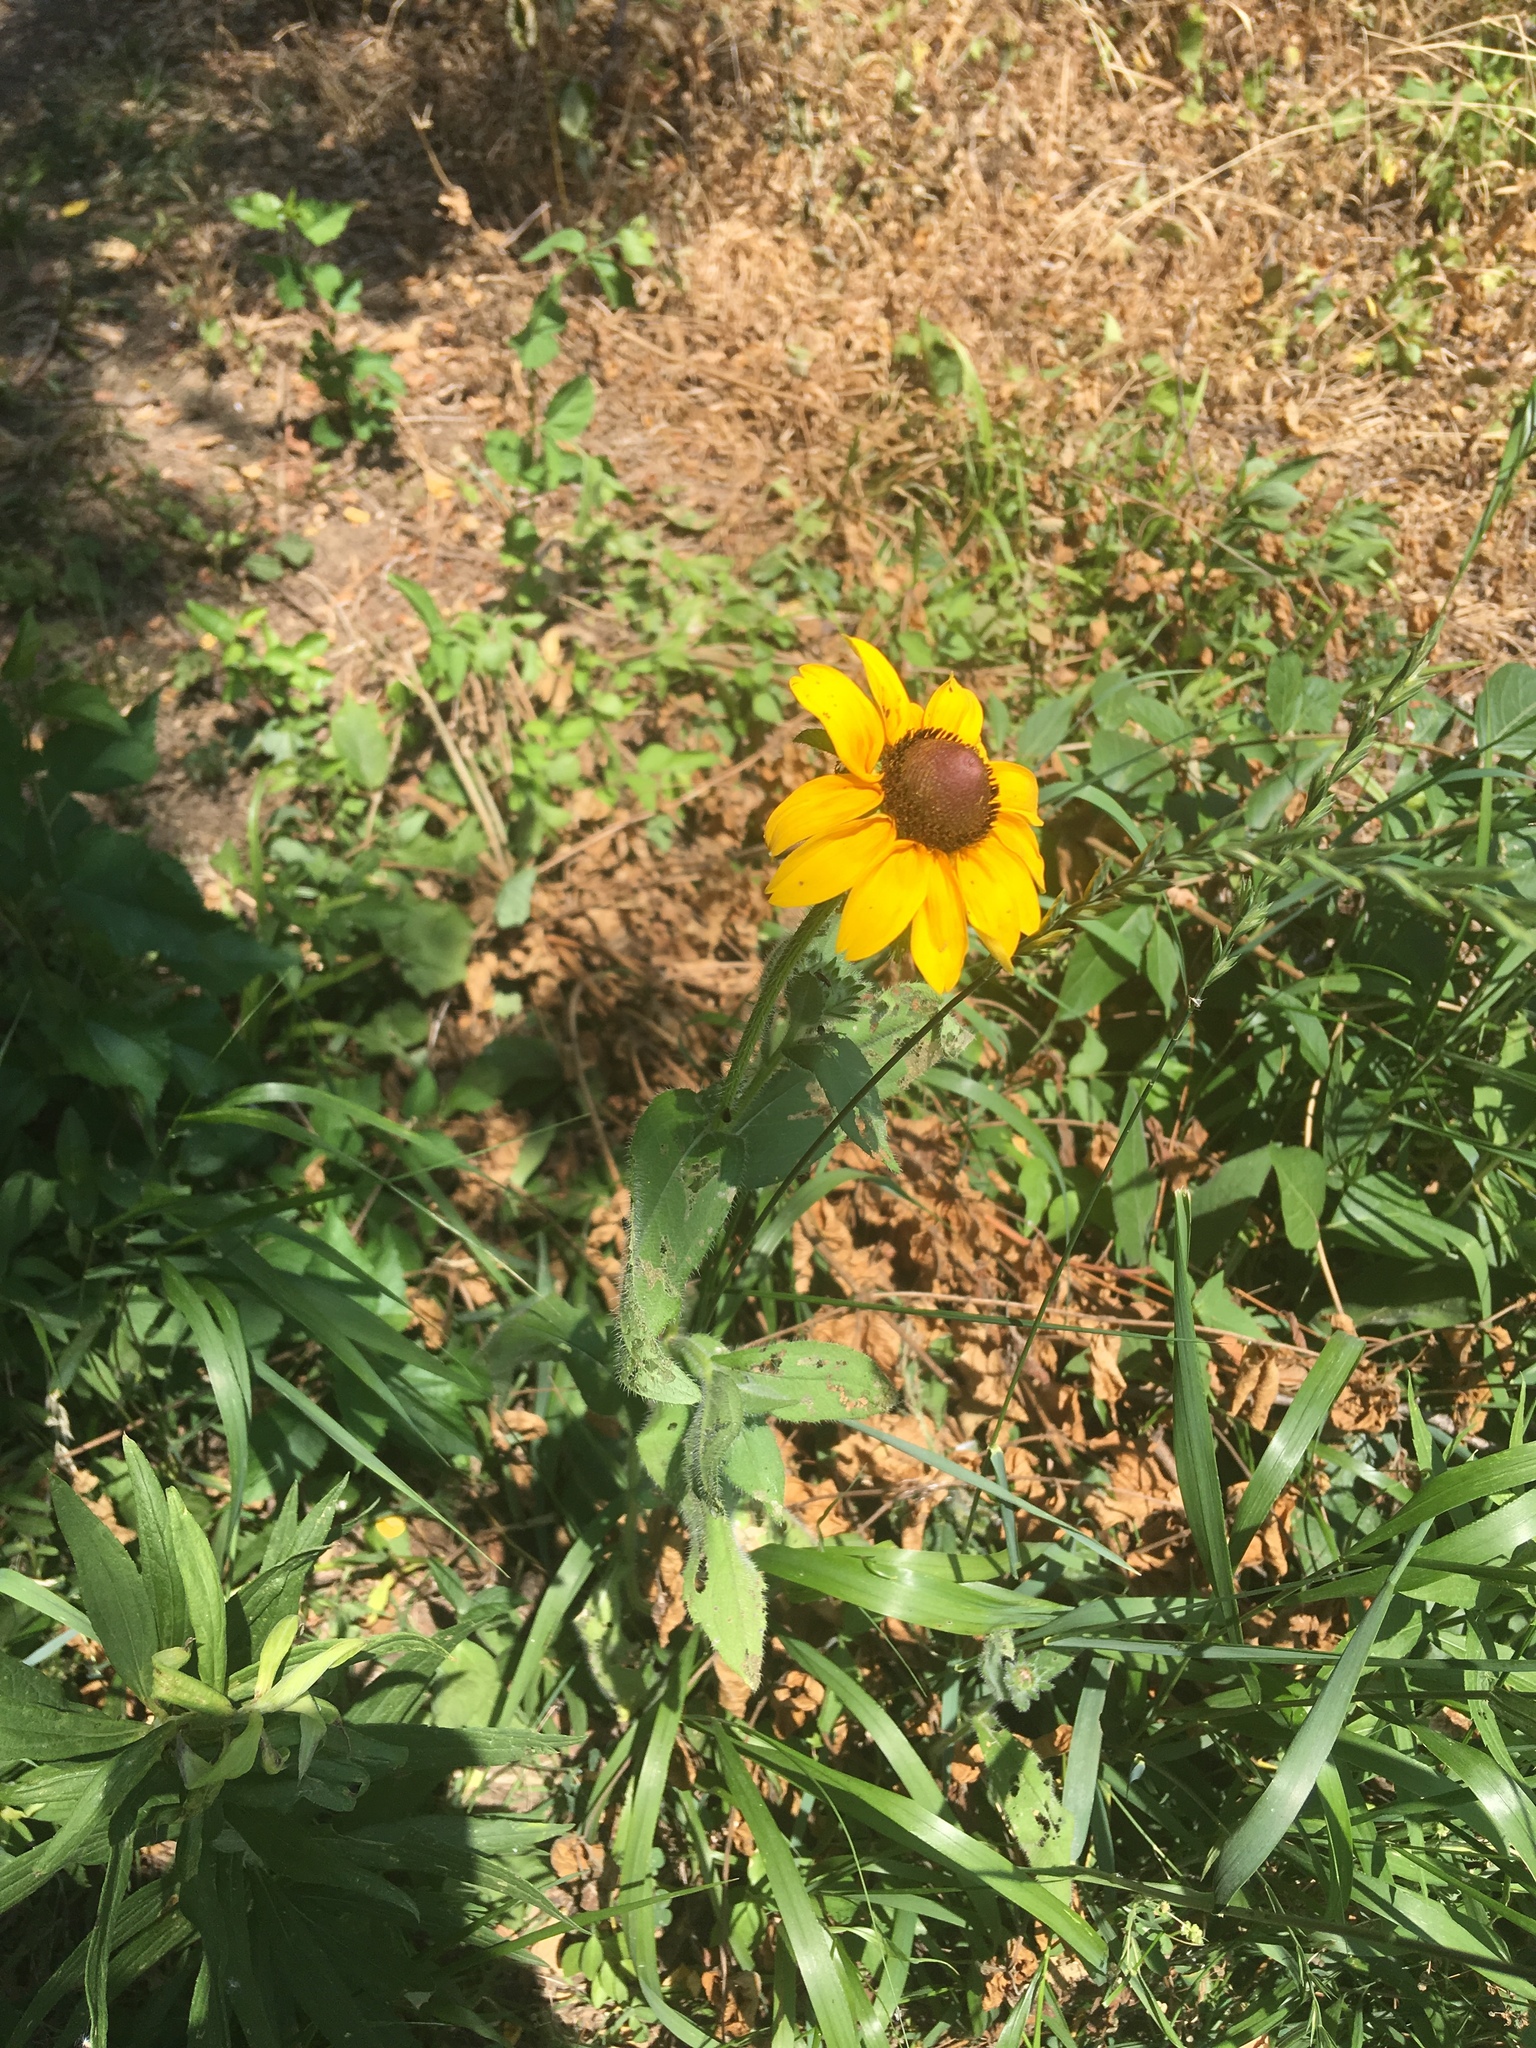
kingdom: Plantae
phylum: Tracheophyta
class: Magnoliopsida
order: Asterales
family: Asteraceae
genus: Rudbeckia
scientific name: Rudbeckia hirta
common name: Black-eyed-susan
